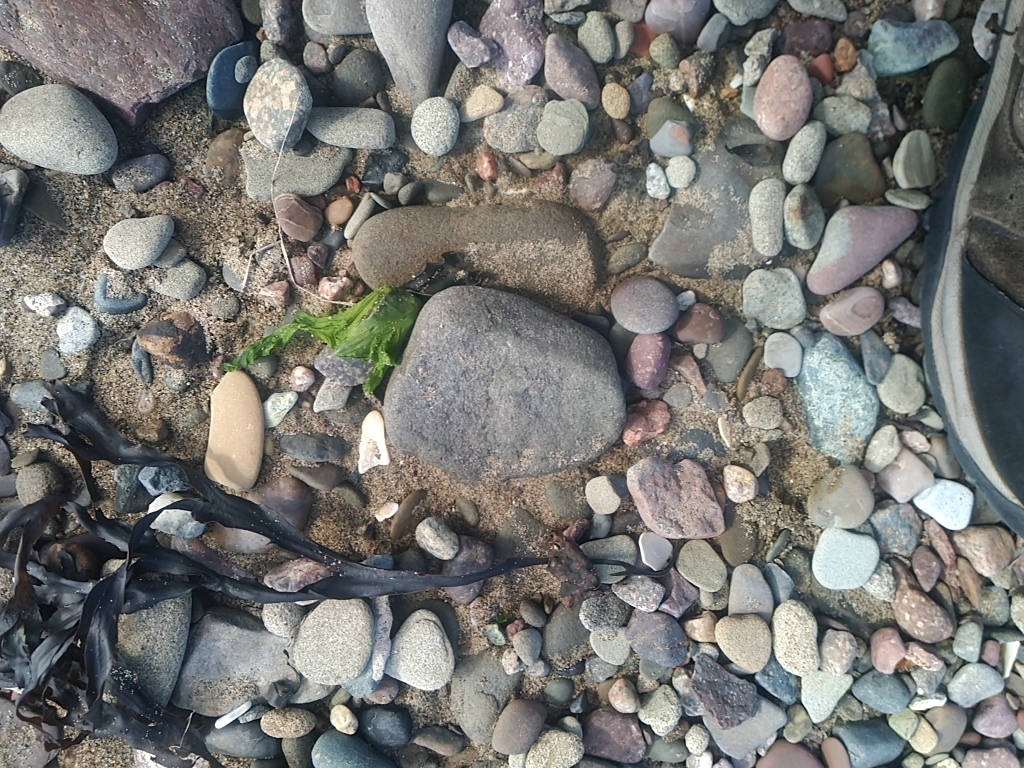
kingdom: Plantae
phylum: Chlorophyta
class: Ulvophyceae
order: Ulvales
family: Ulvaceae
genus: Ulva
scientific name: Ulva lactuca
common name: Sea lettuce
